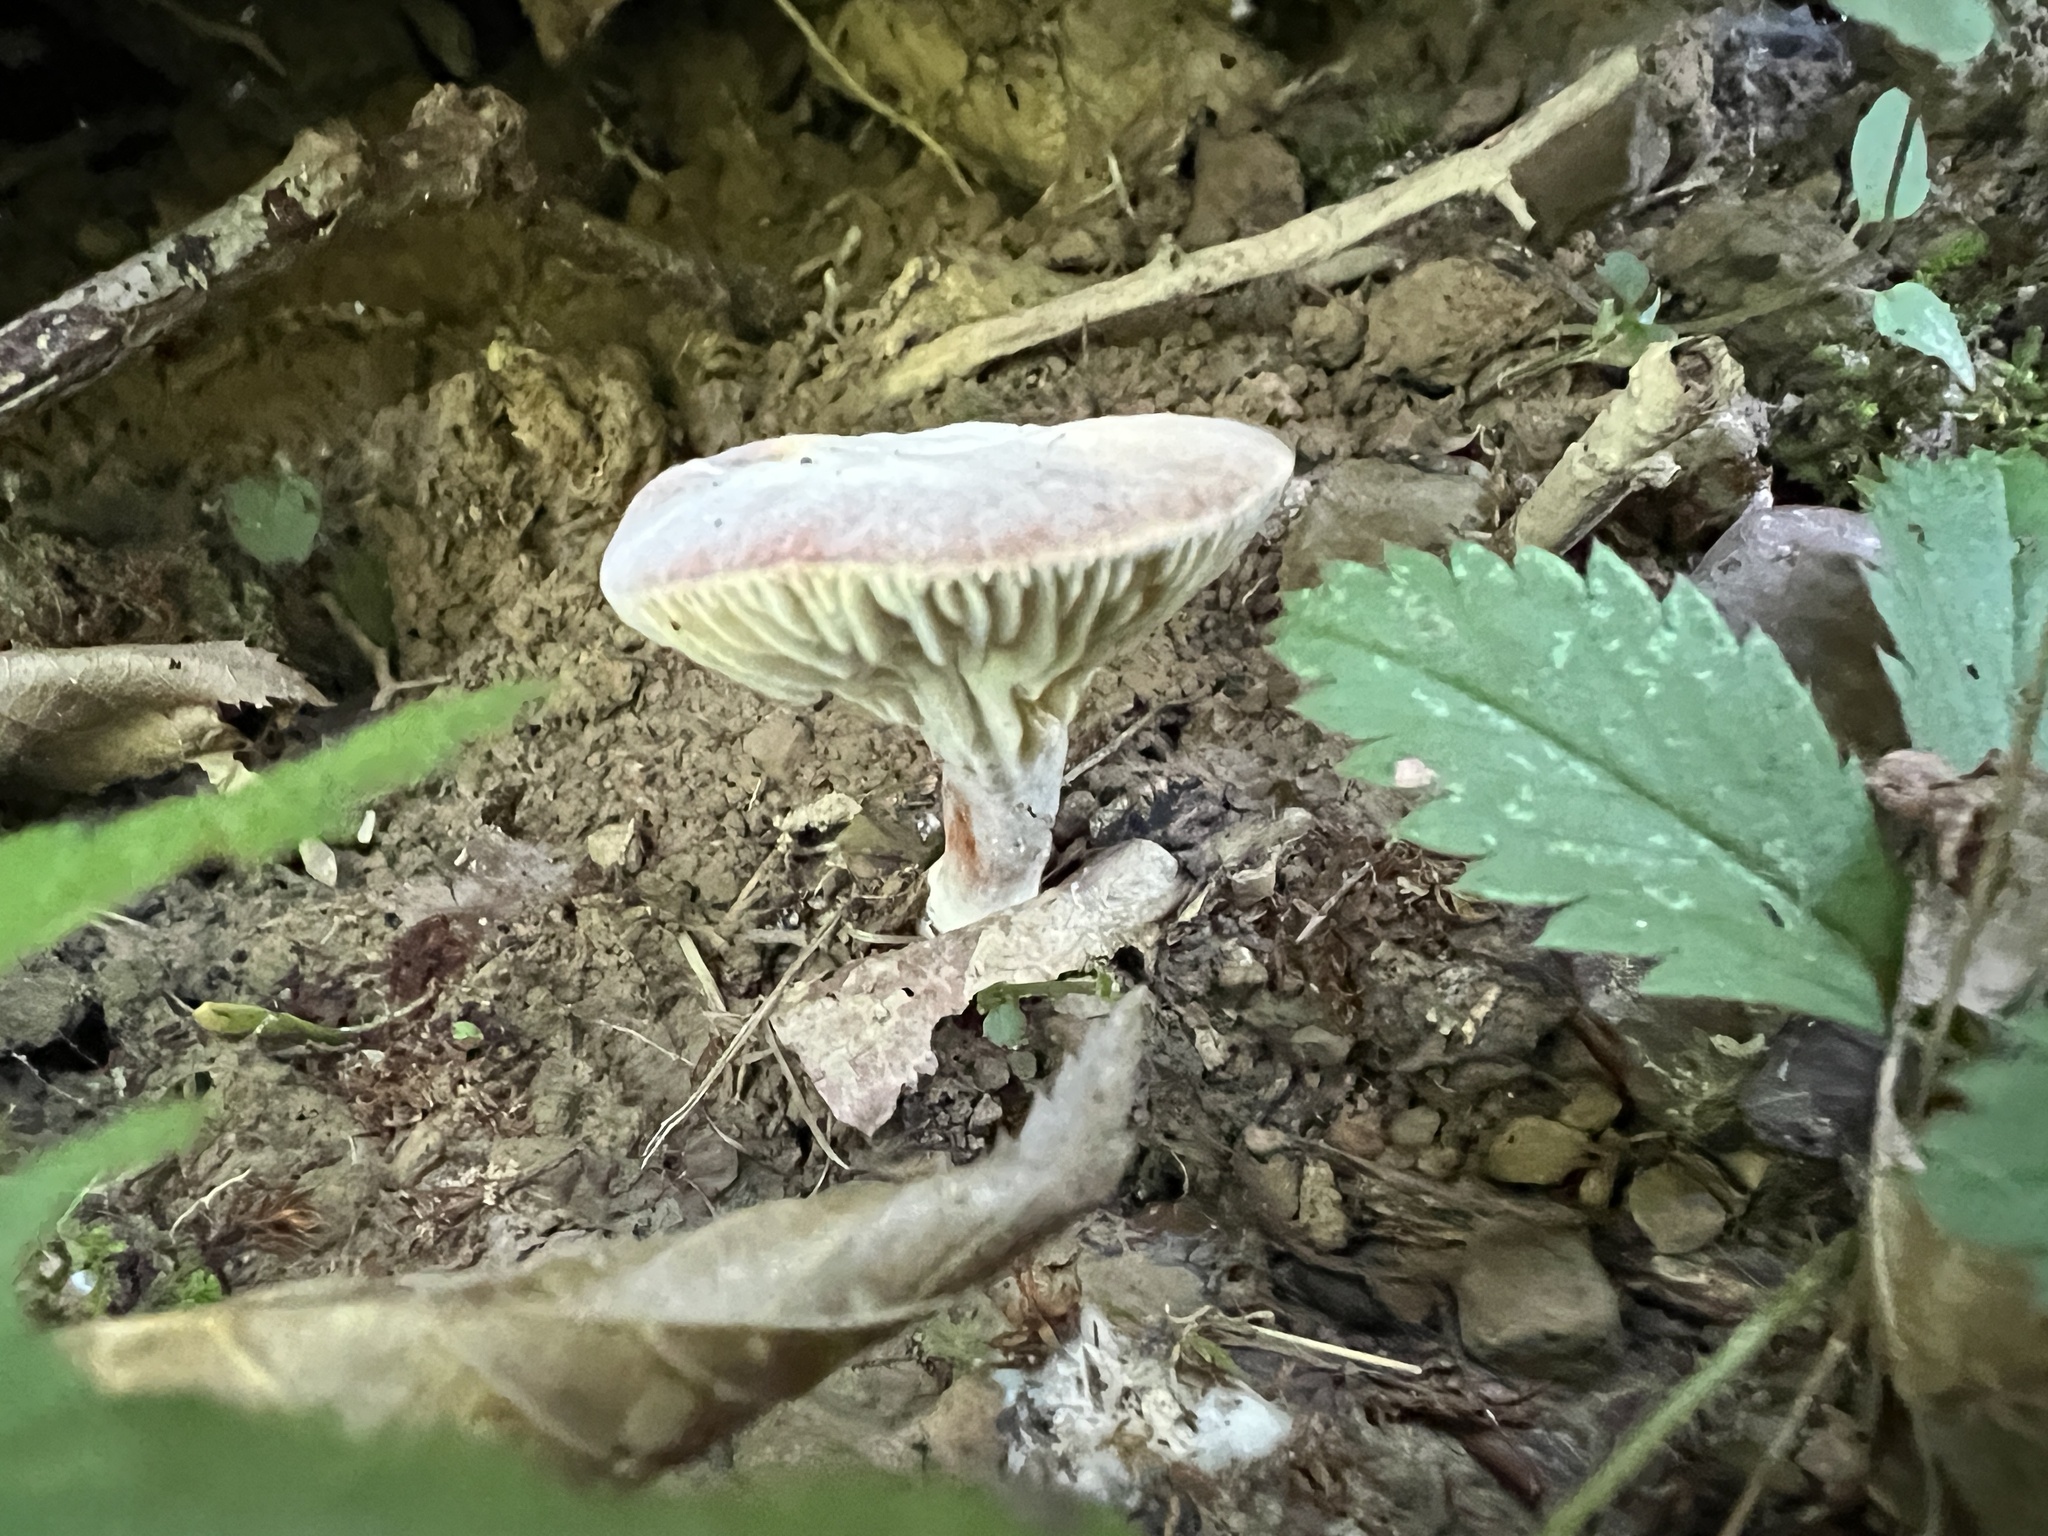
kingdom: Fungi
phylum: Ascomycota
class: Sordariomycetes
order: Hypocreales
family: Hypocreaceae
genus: Hypomyces
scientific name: Hypomyces lateritius
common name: Ochre gillgobbler
